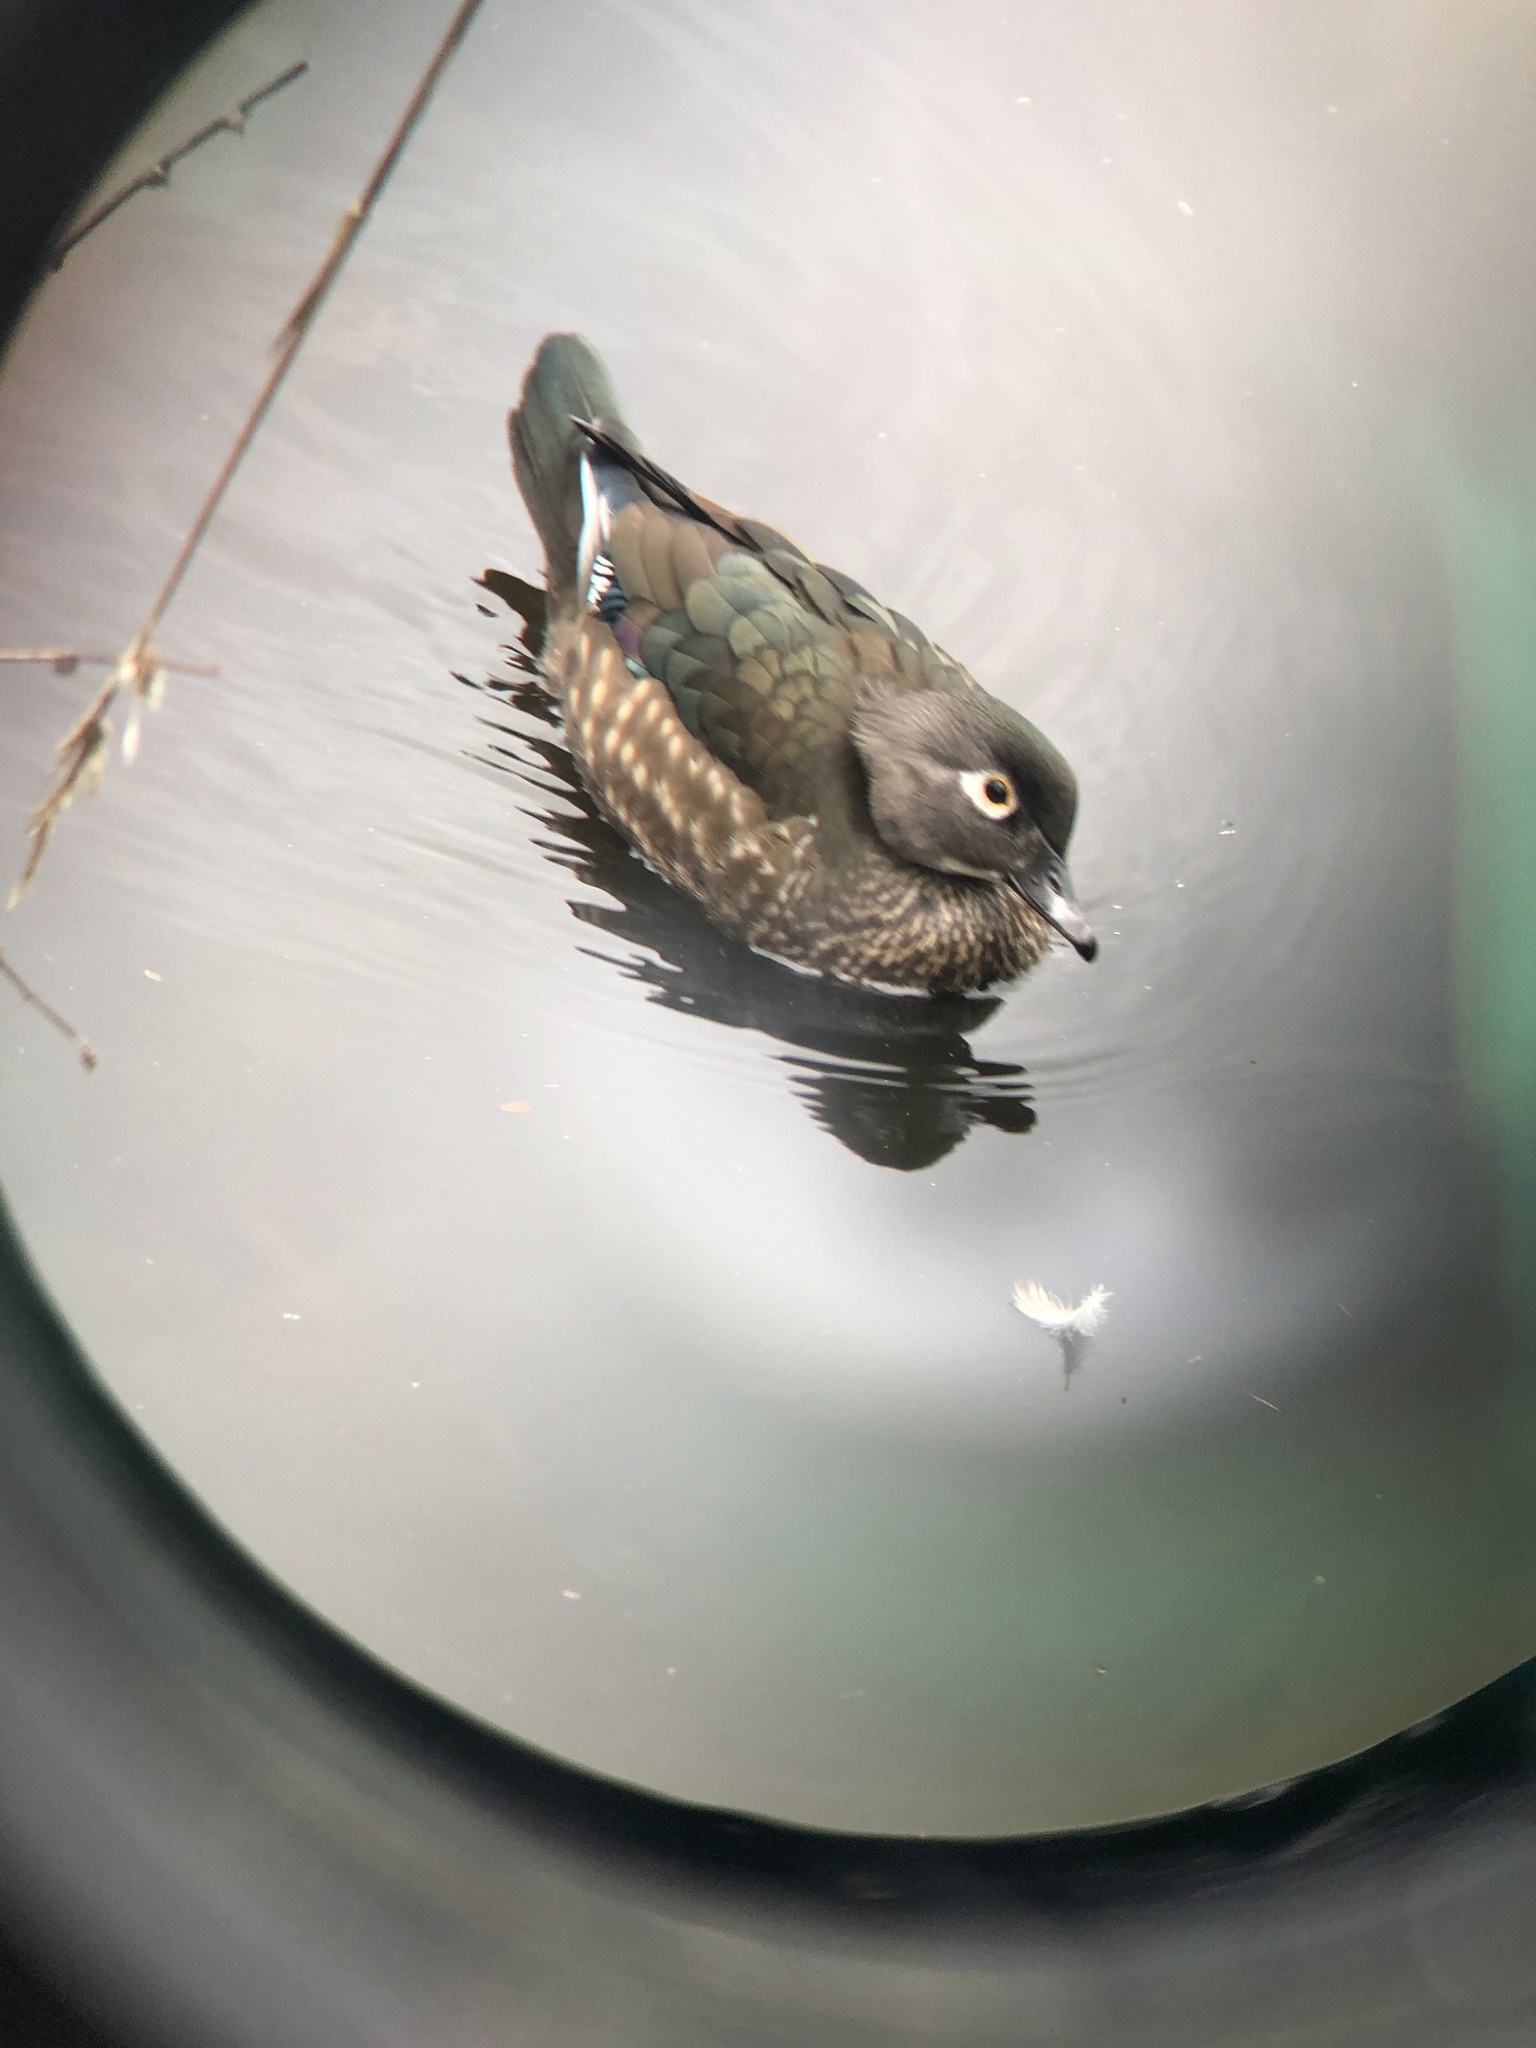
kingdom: Animalia
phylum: Chordata
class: Aves
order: Anseriformes
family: Anatidae
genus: Aix
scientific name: Aix sponsa
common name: Wood duck
